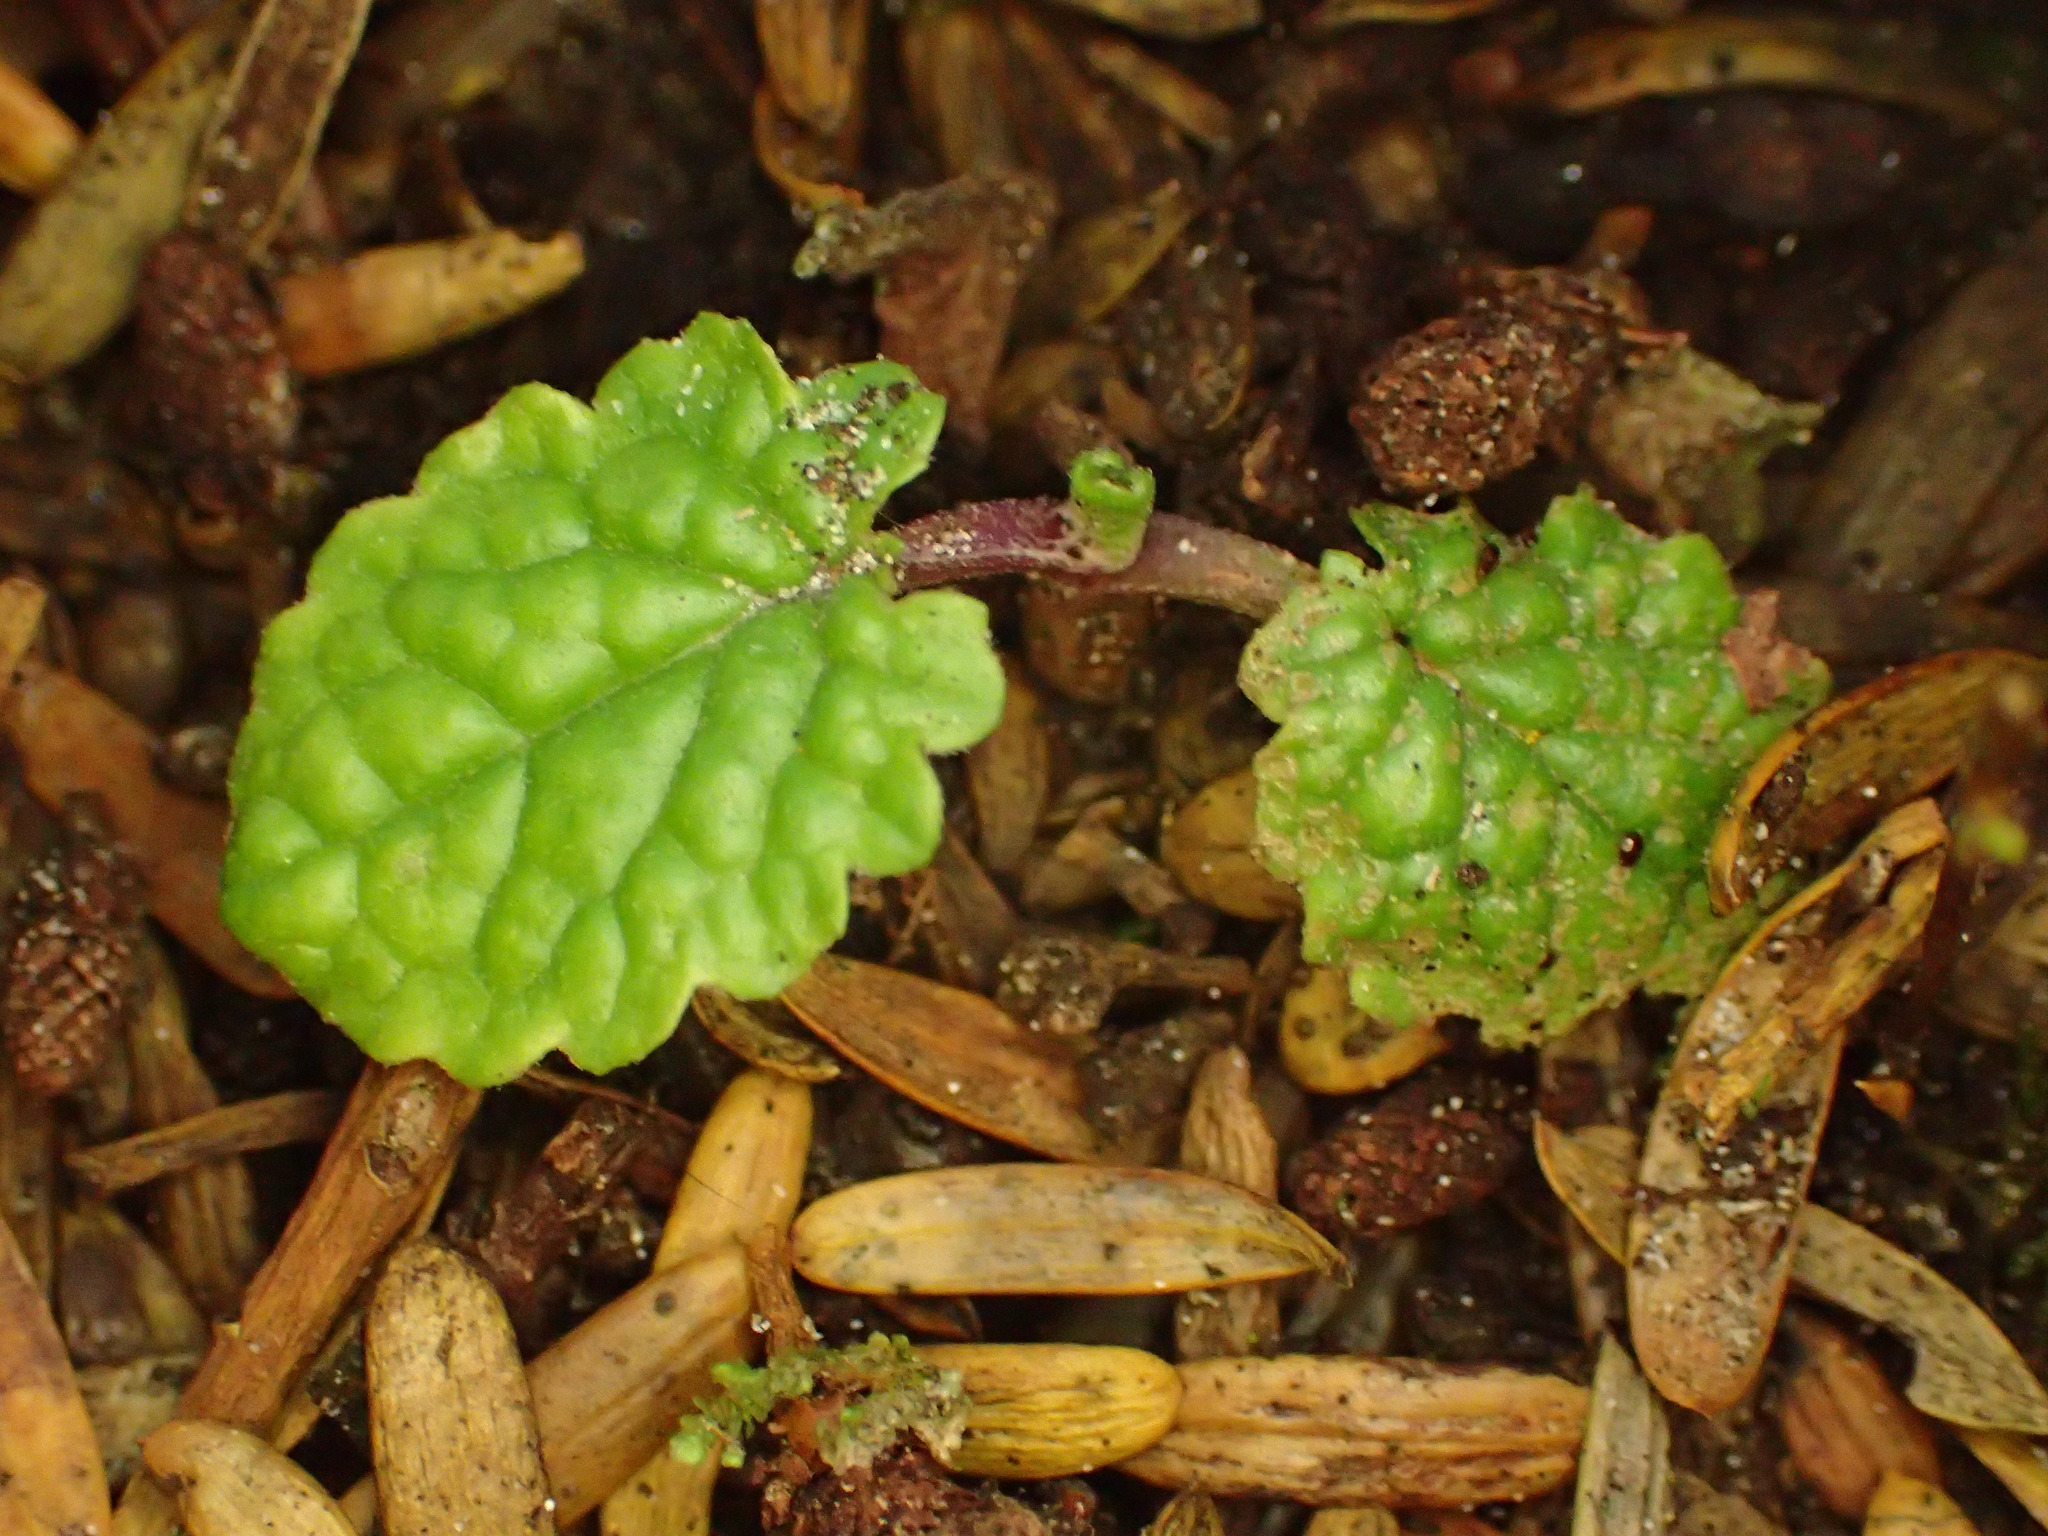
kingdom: Plantae
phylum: Tracheophyta
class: Magnoliopsida
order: Asterales
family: Asteraceae
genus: Jacobaea
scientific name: Jacobaea vulgaris
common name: Stinking willie
